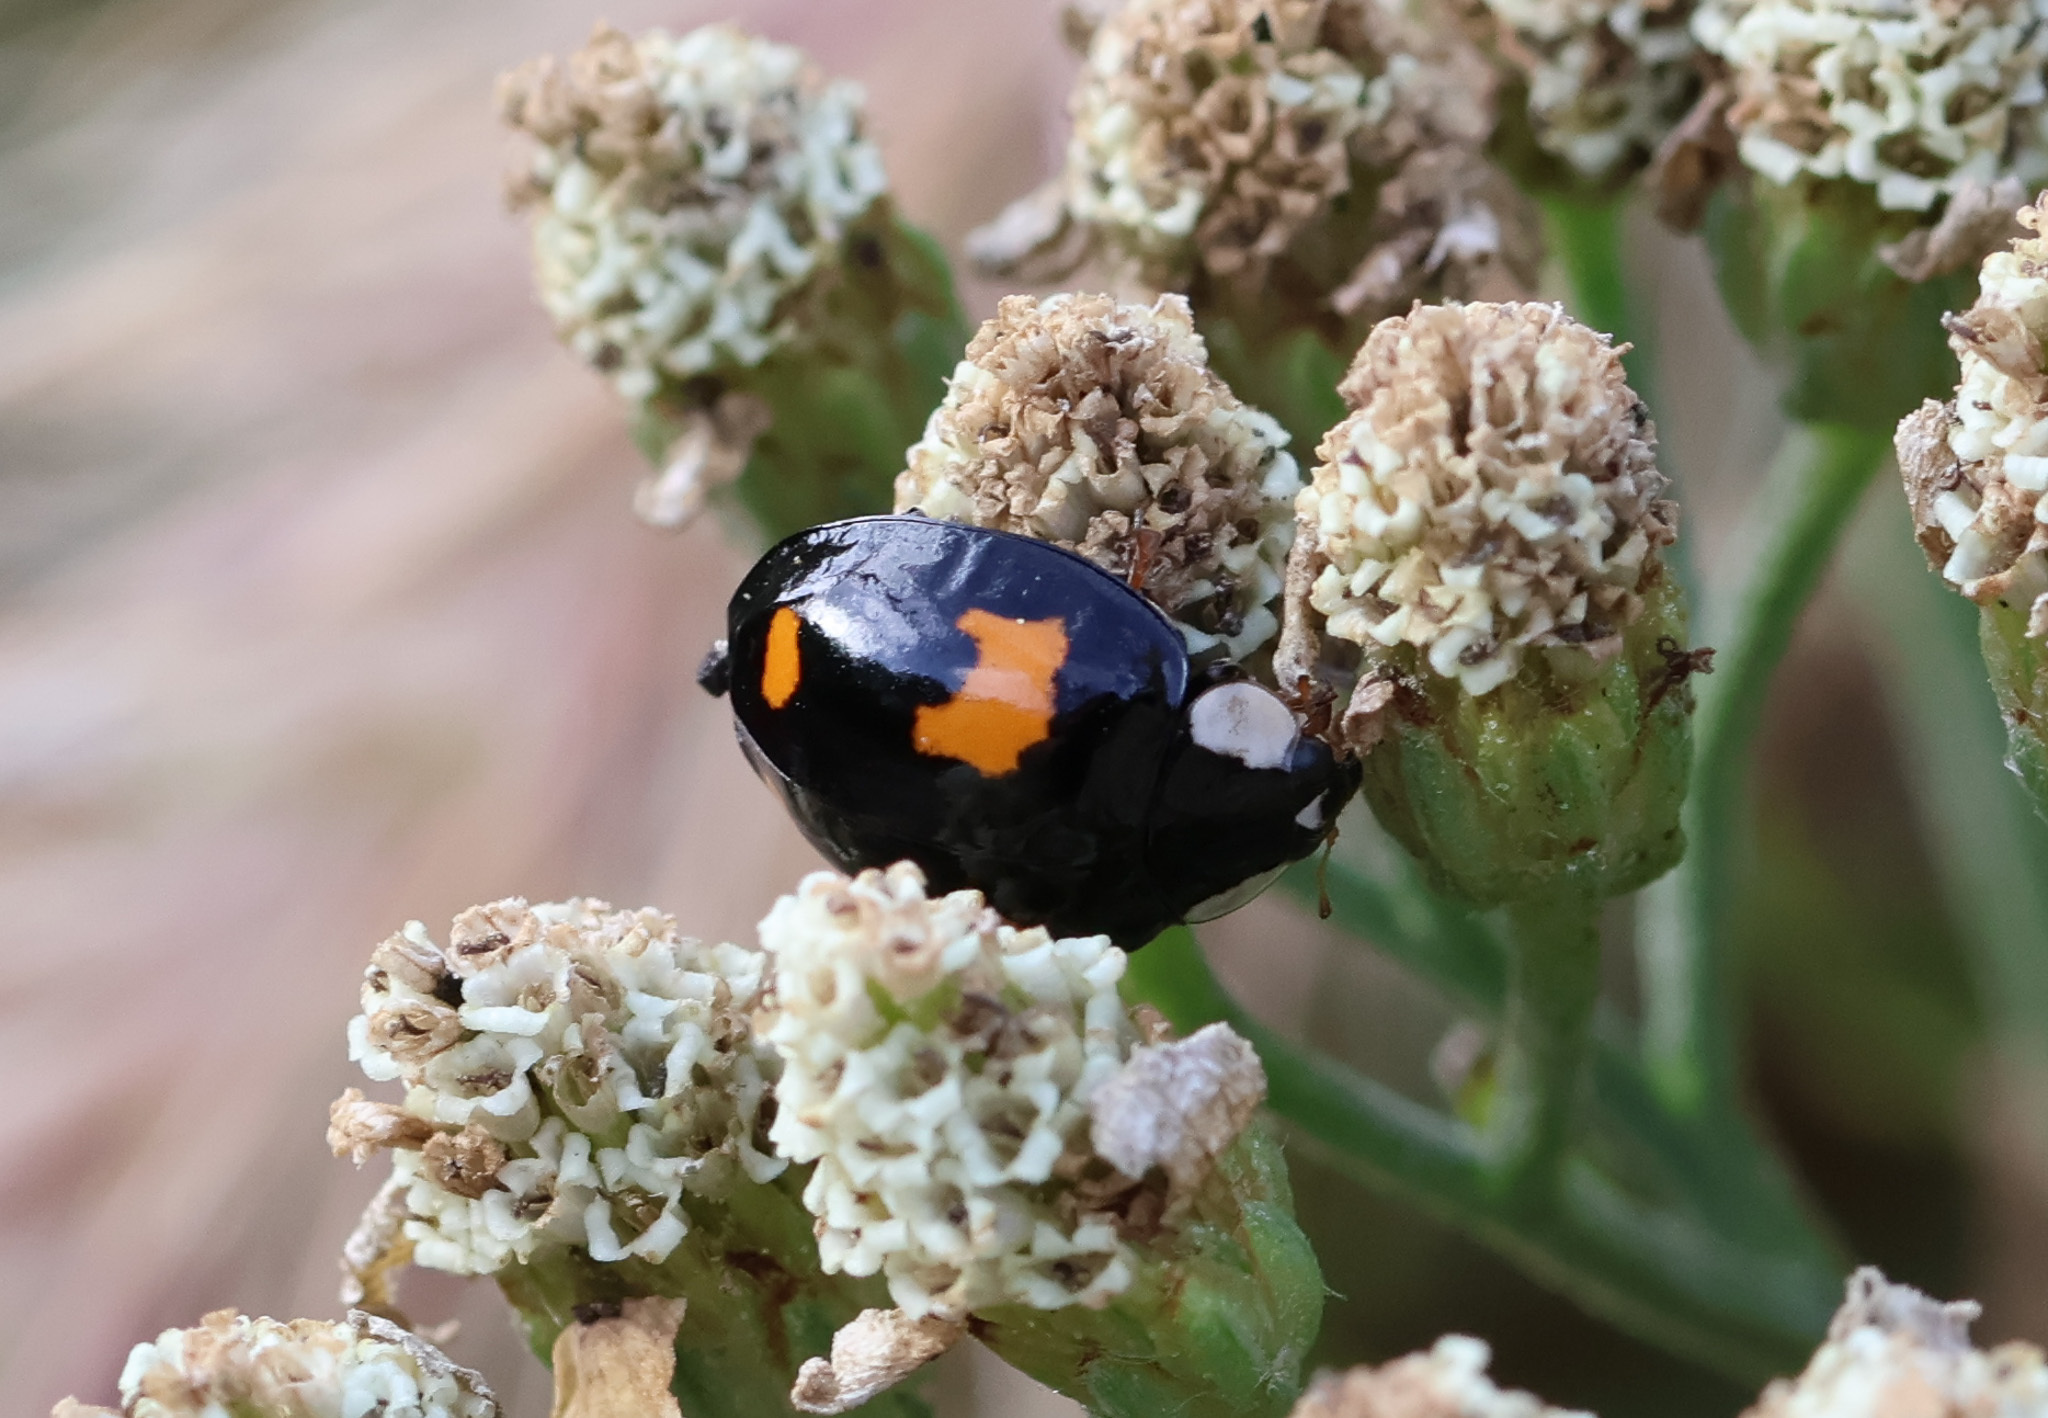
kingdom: Animalia
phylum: Arthropoda
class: Insecta
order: Coleoptera
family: Coccinellidae
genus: Harmonia
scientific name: Harmonia axyridis
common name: Harlequin ladybird
